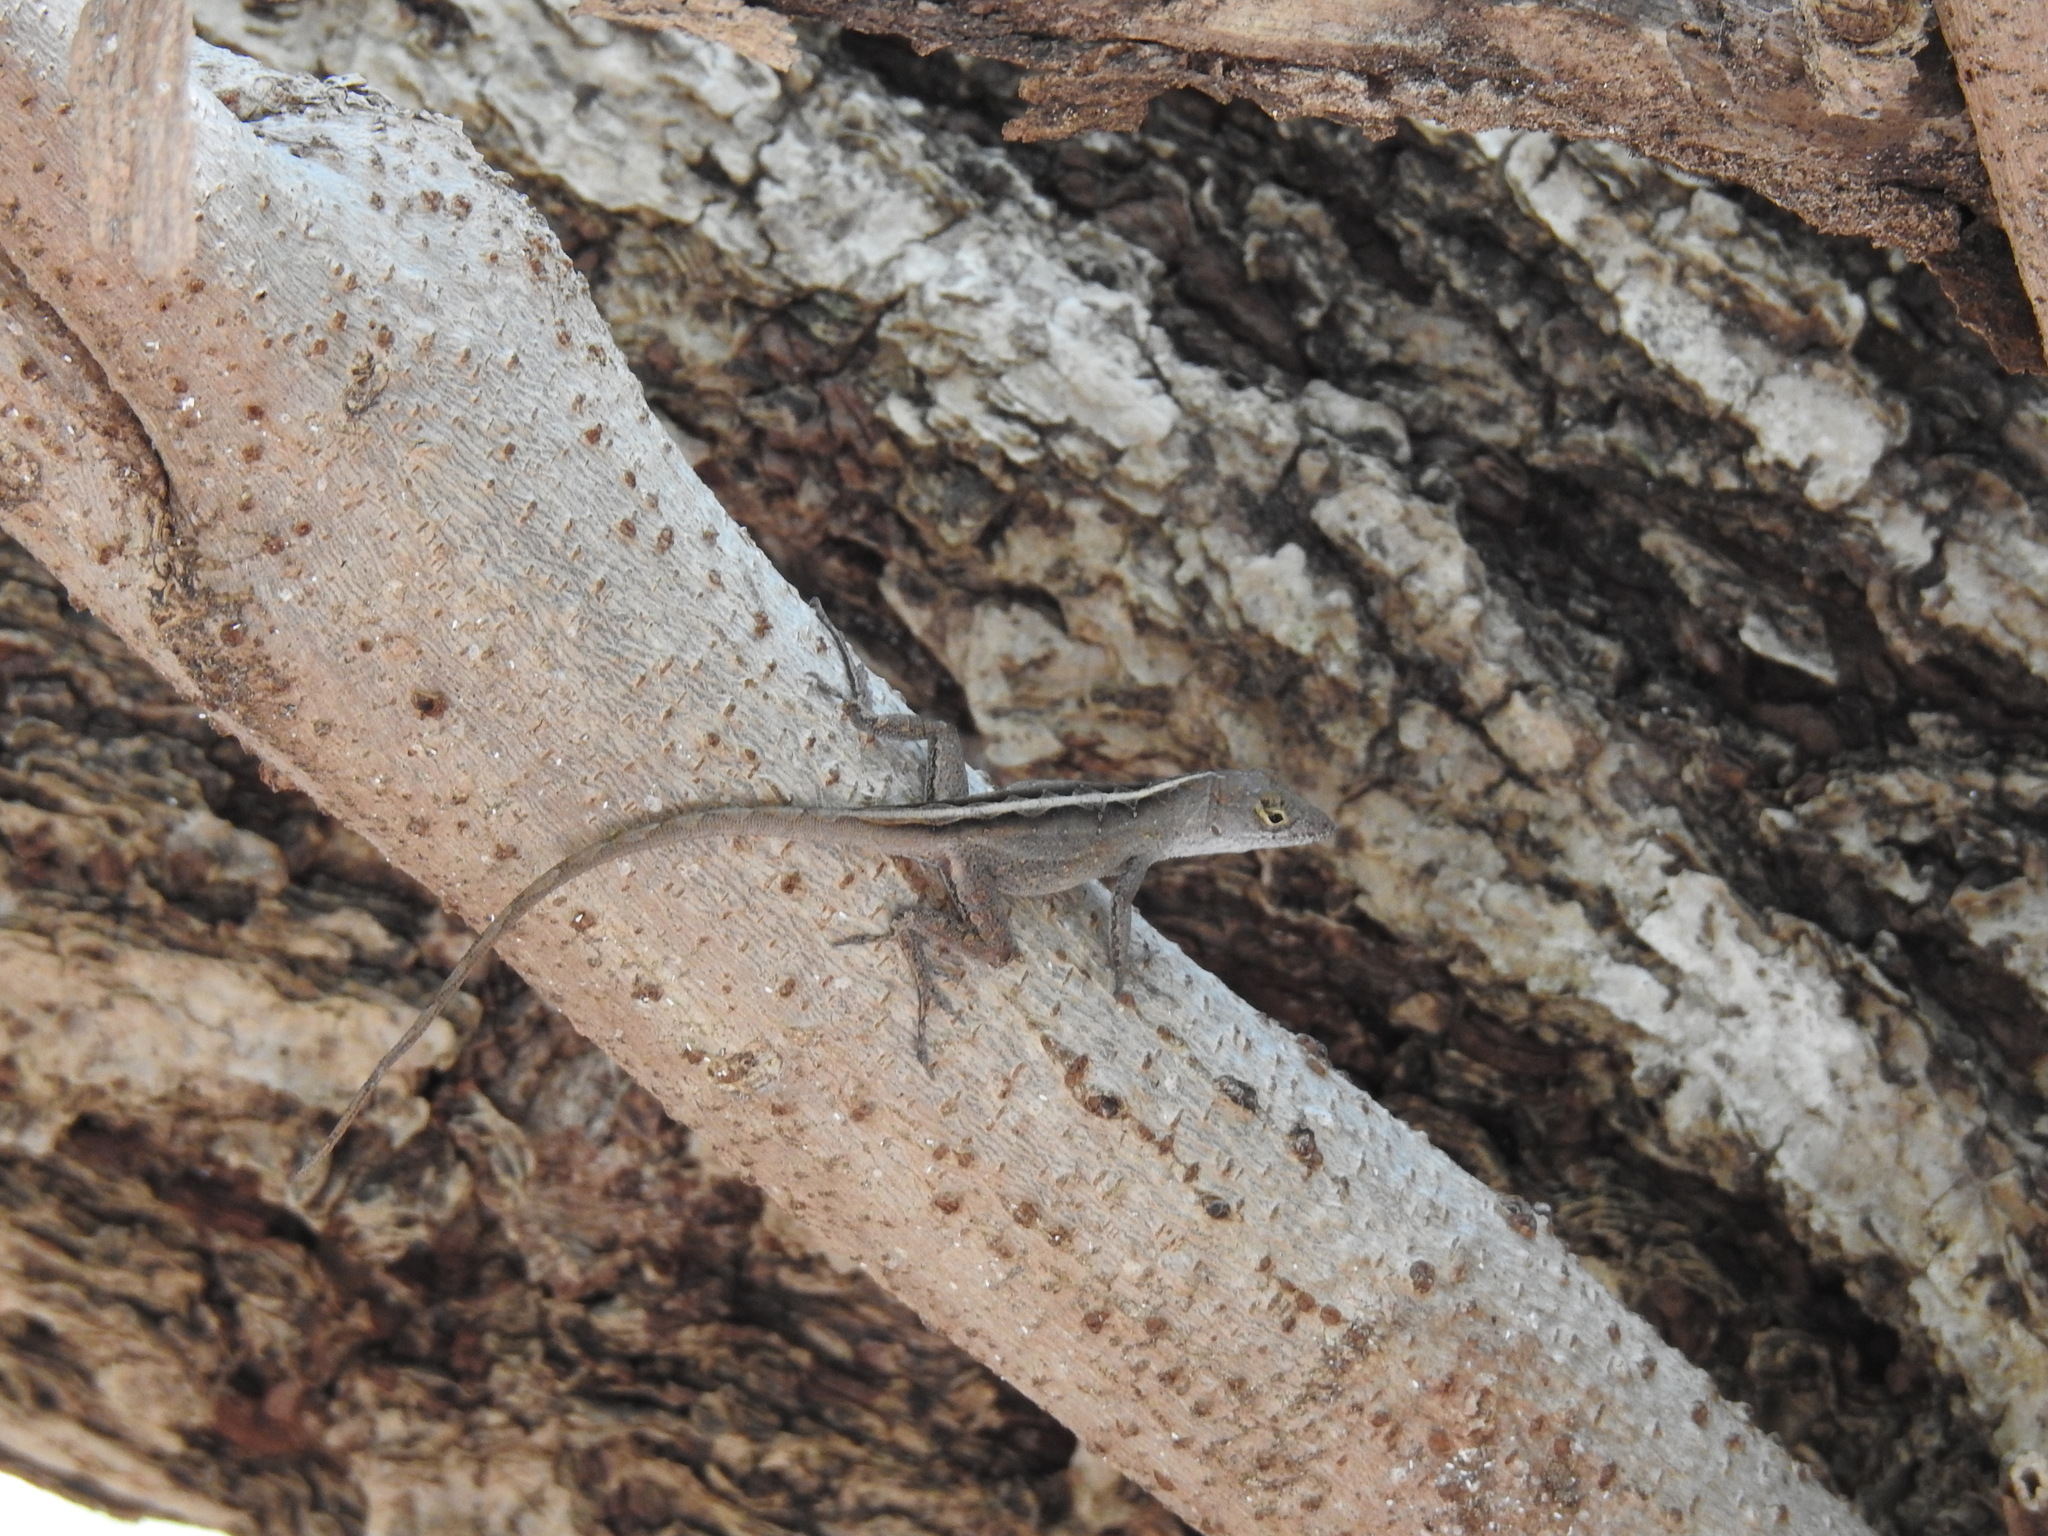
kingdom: Animalia
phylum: Chordata
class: Squamata
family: Dactyloidae
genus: Anolis
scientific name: Anolis sagrei
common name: Brown anole
